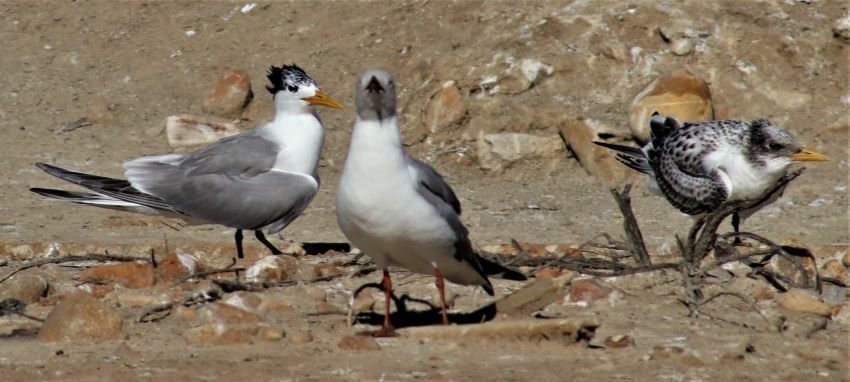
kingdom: Animalia
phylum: Chordata
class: Aves
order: Charadriiformes
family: Laridae
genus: Thalasseus
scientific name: Thalasseus bergii
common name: Greater crested tern
